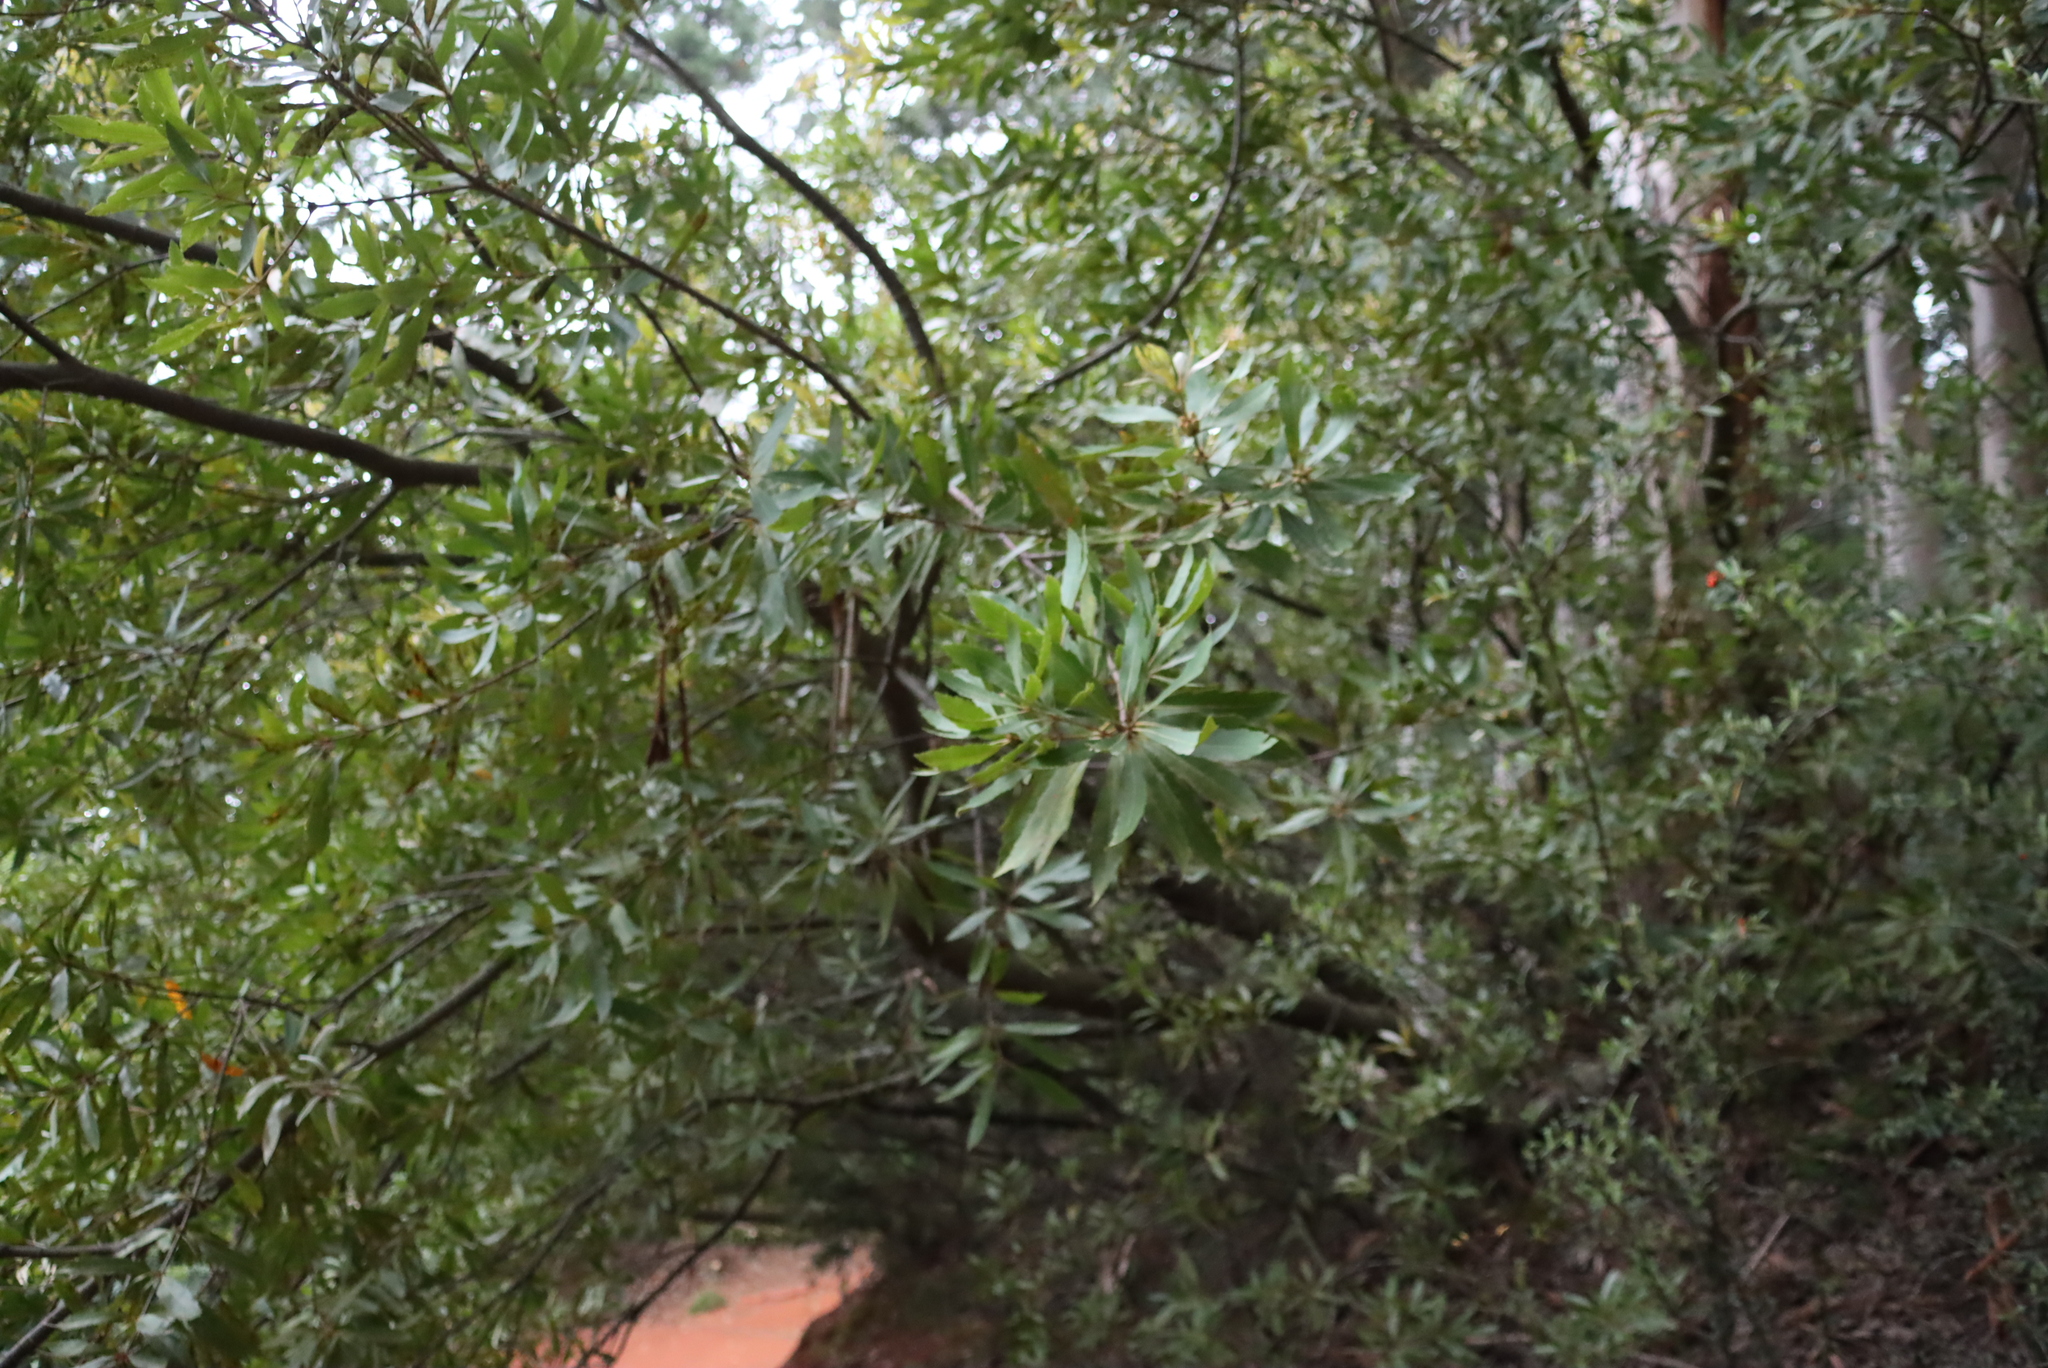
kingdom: Plantae
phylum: Tracheophyta
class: Magnoliopsida
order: Proteales
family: Proteaceae
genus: Brabejum
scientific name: Brabejum stellatifolium
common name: Wild almond
